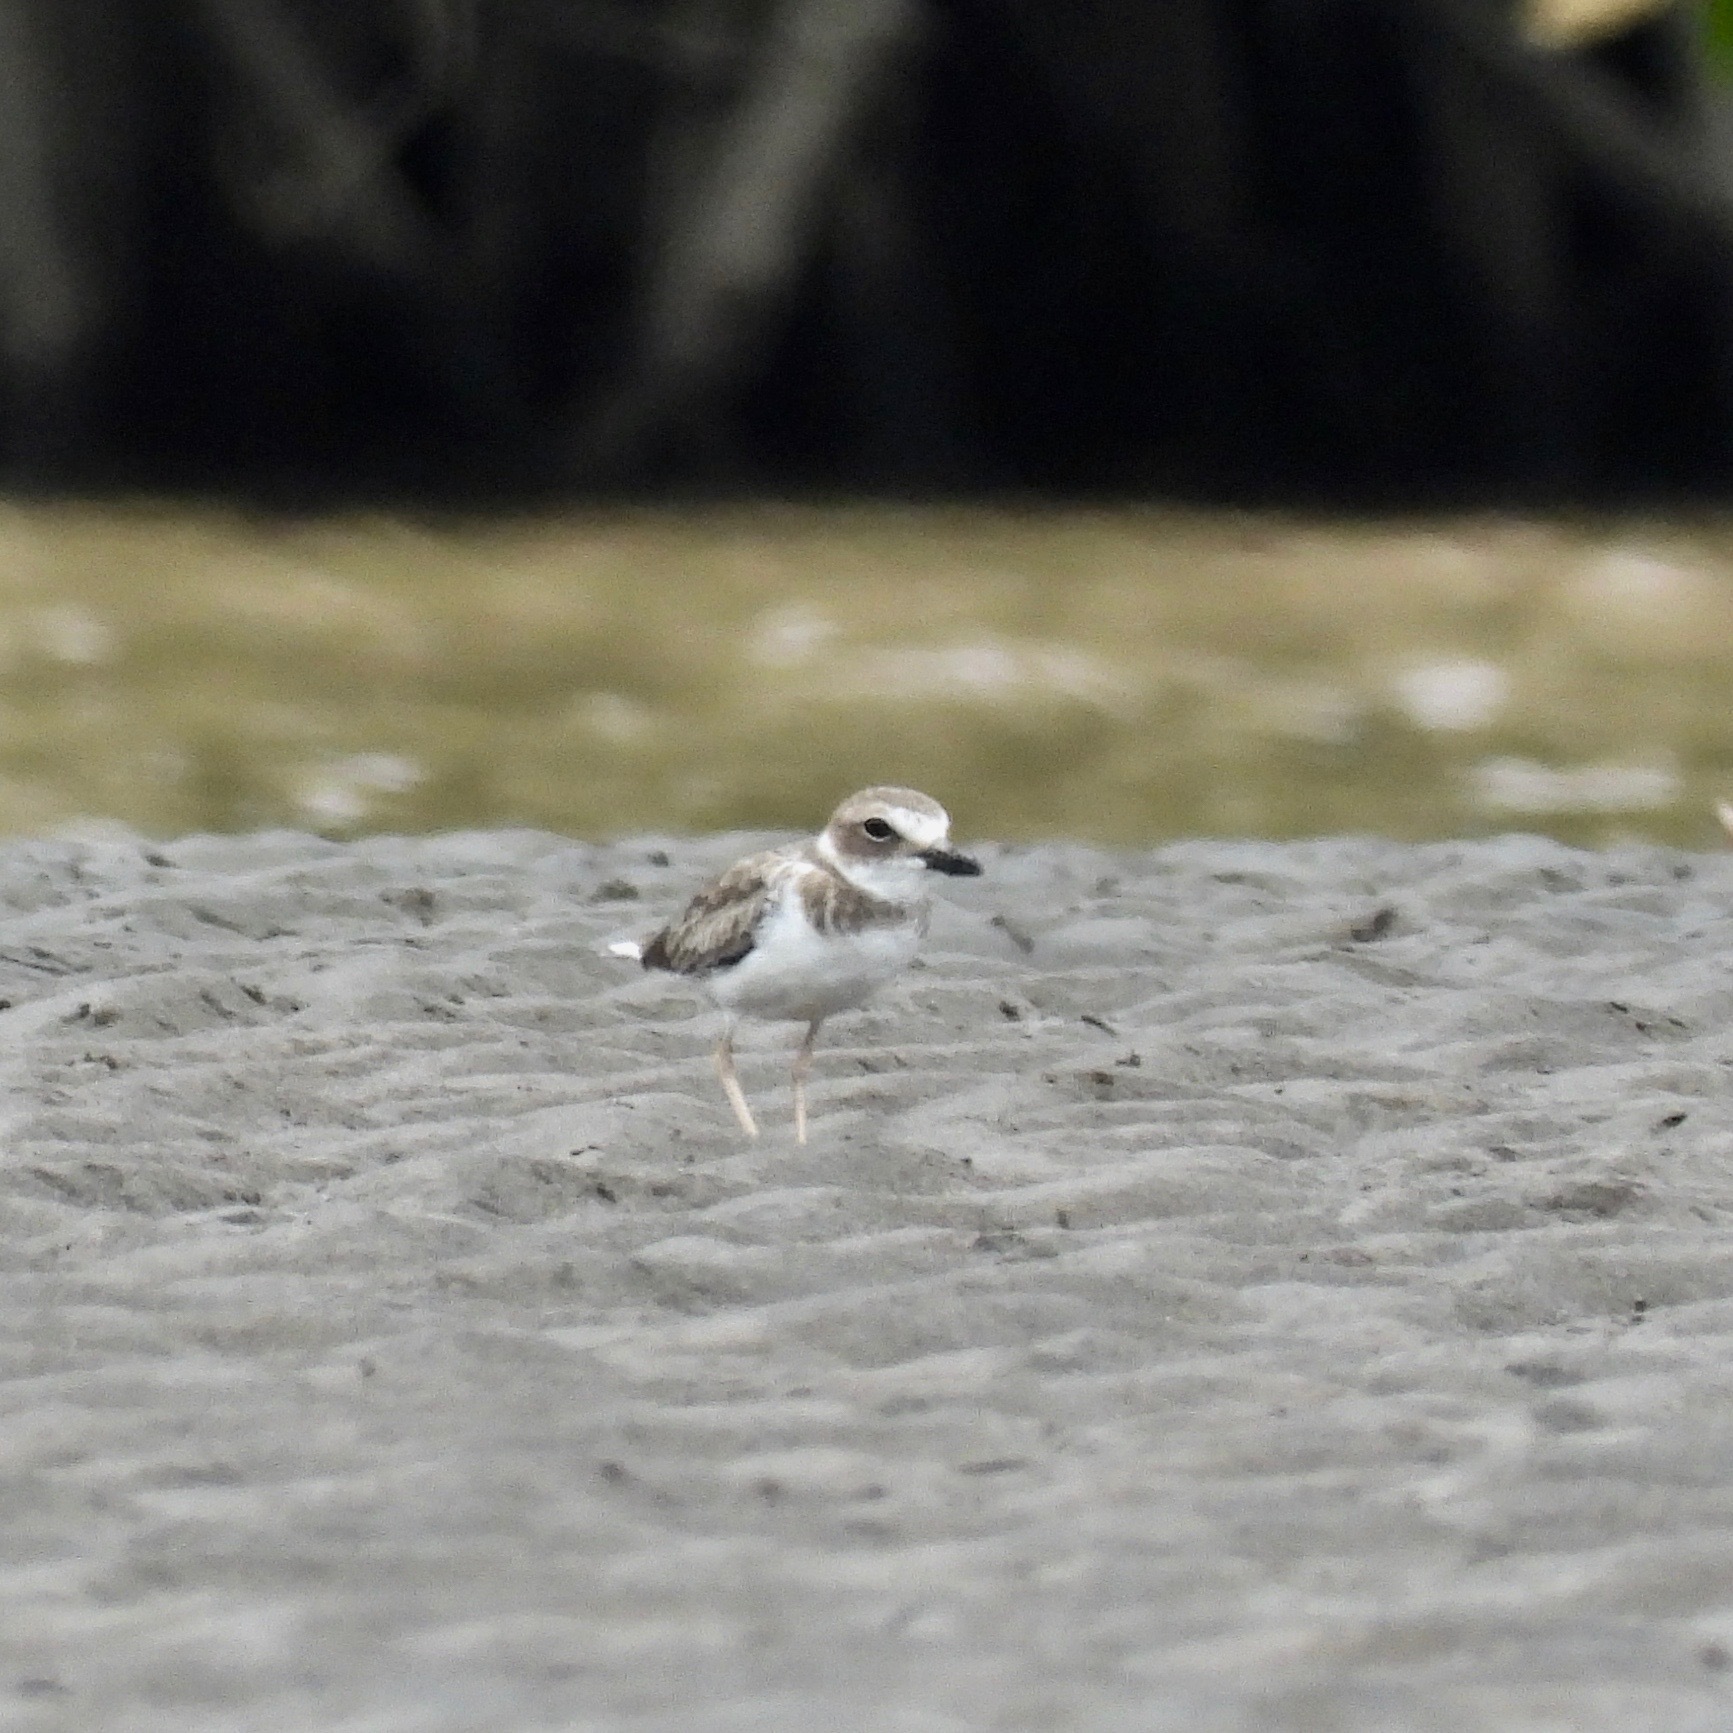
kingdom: Animalia
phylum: Chordata
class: Aves
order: Charadriiformes
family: Charadriidae
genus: Anarhynchus
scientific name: Anarhynchus
